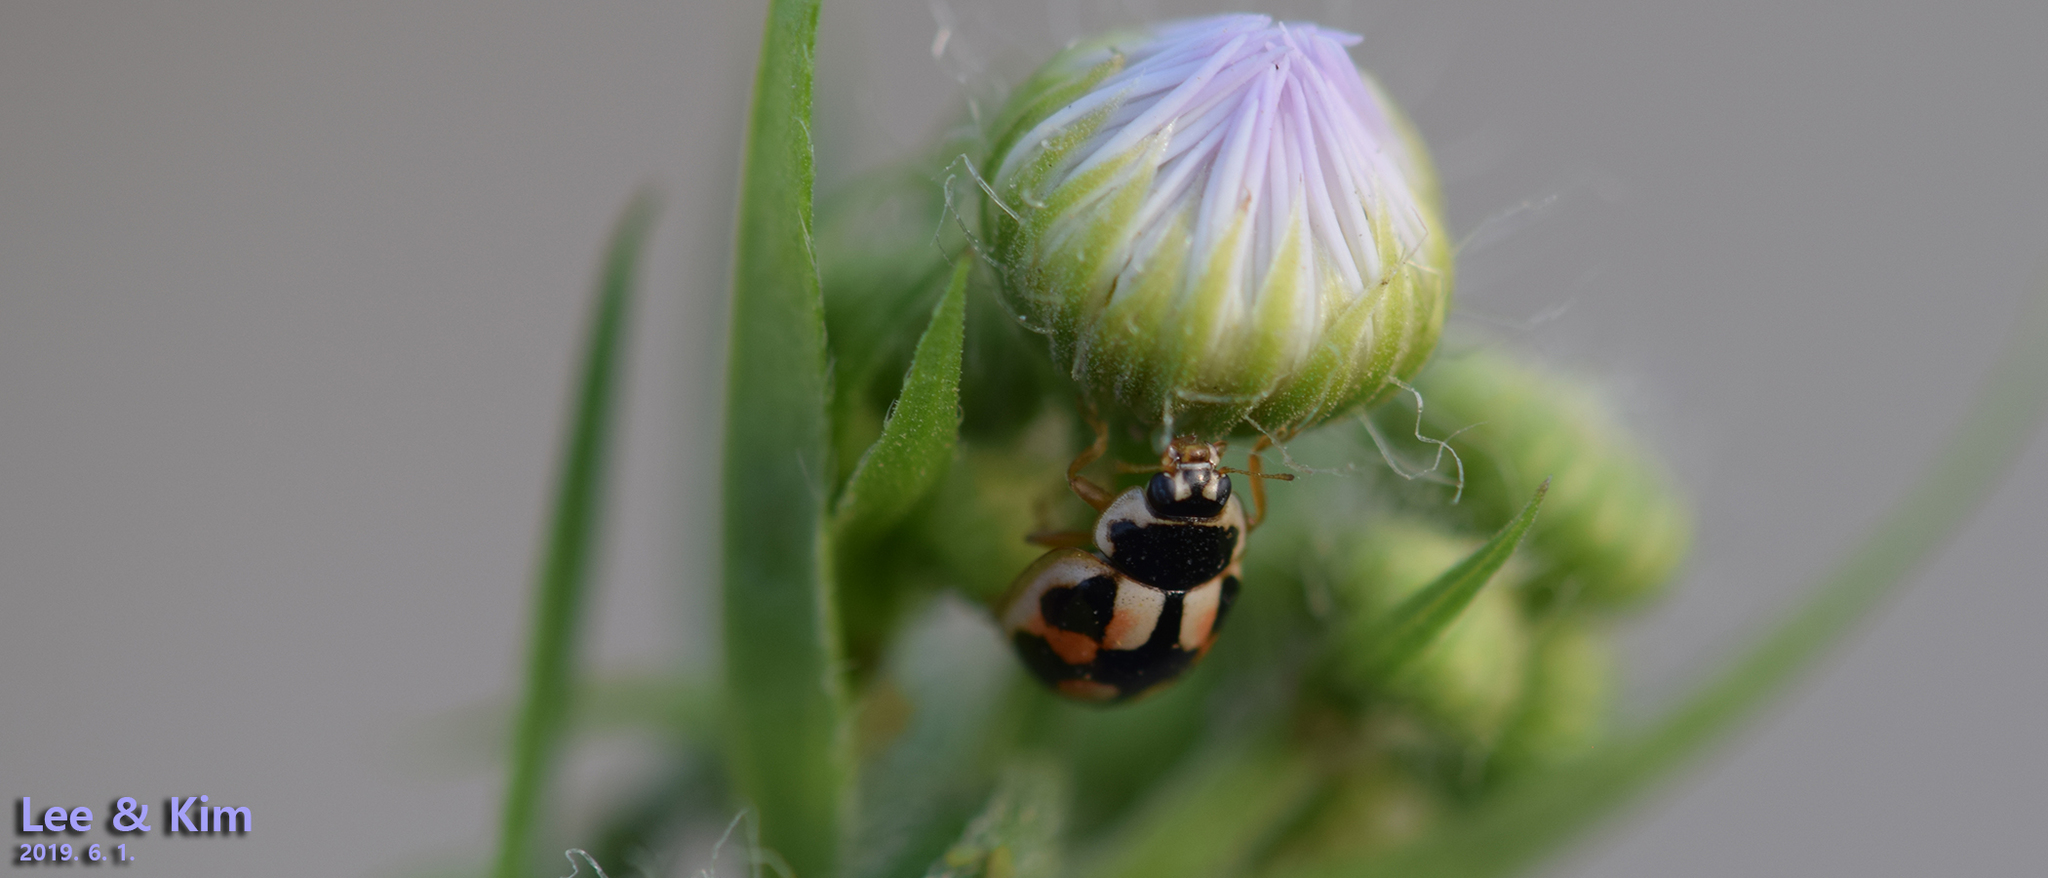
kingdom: Animalia
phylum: Arthropoda
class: Insecta
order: Coleoptera
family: Coccinellidae
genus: Propylea
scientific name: Propylea japonica
